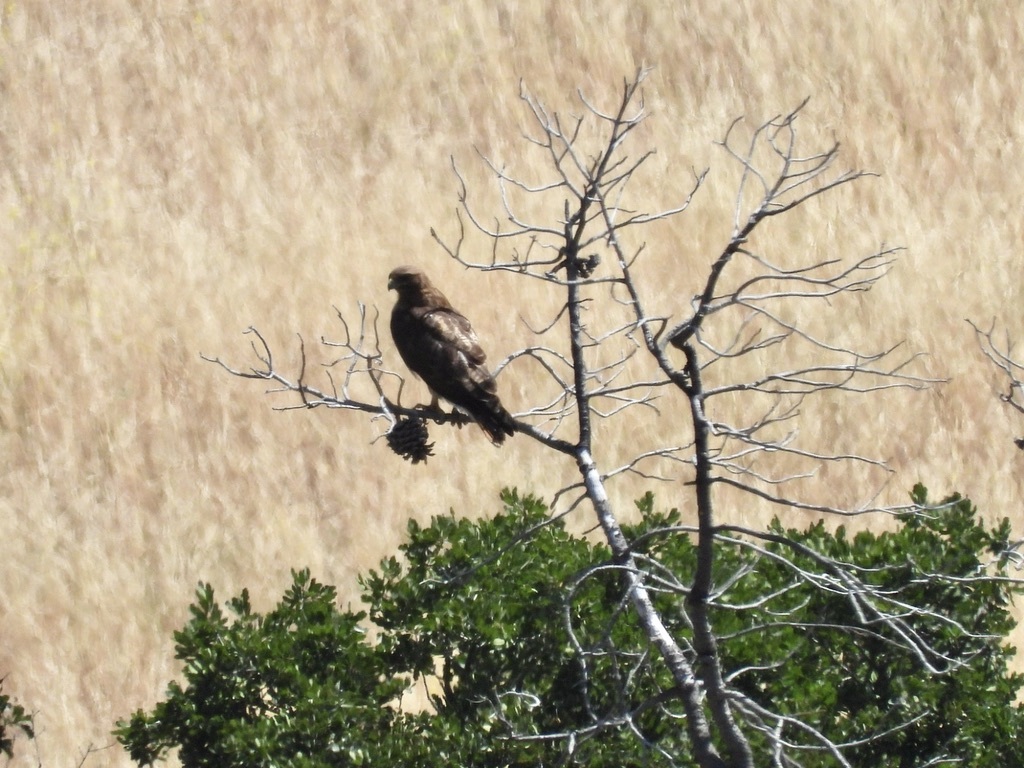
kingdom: Animalia
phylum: Chordata
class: Aves
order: Accipitriformes
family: Accipitridae
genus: Buteo
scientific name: Buteo jamaicensis
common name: Red-tailed hawk
